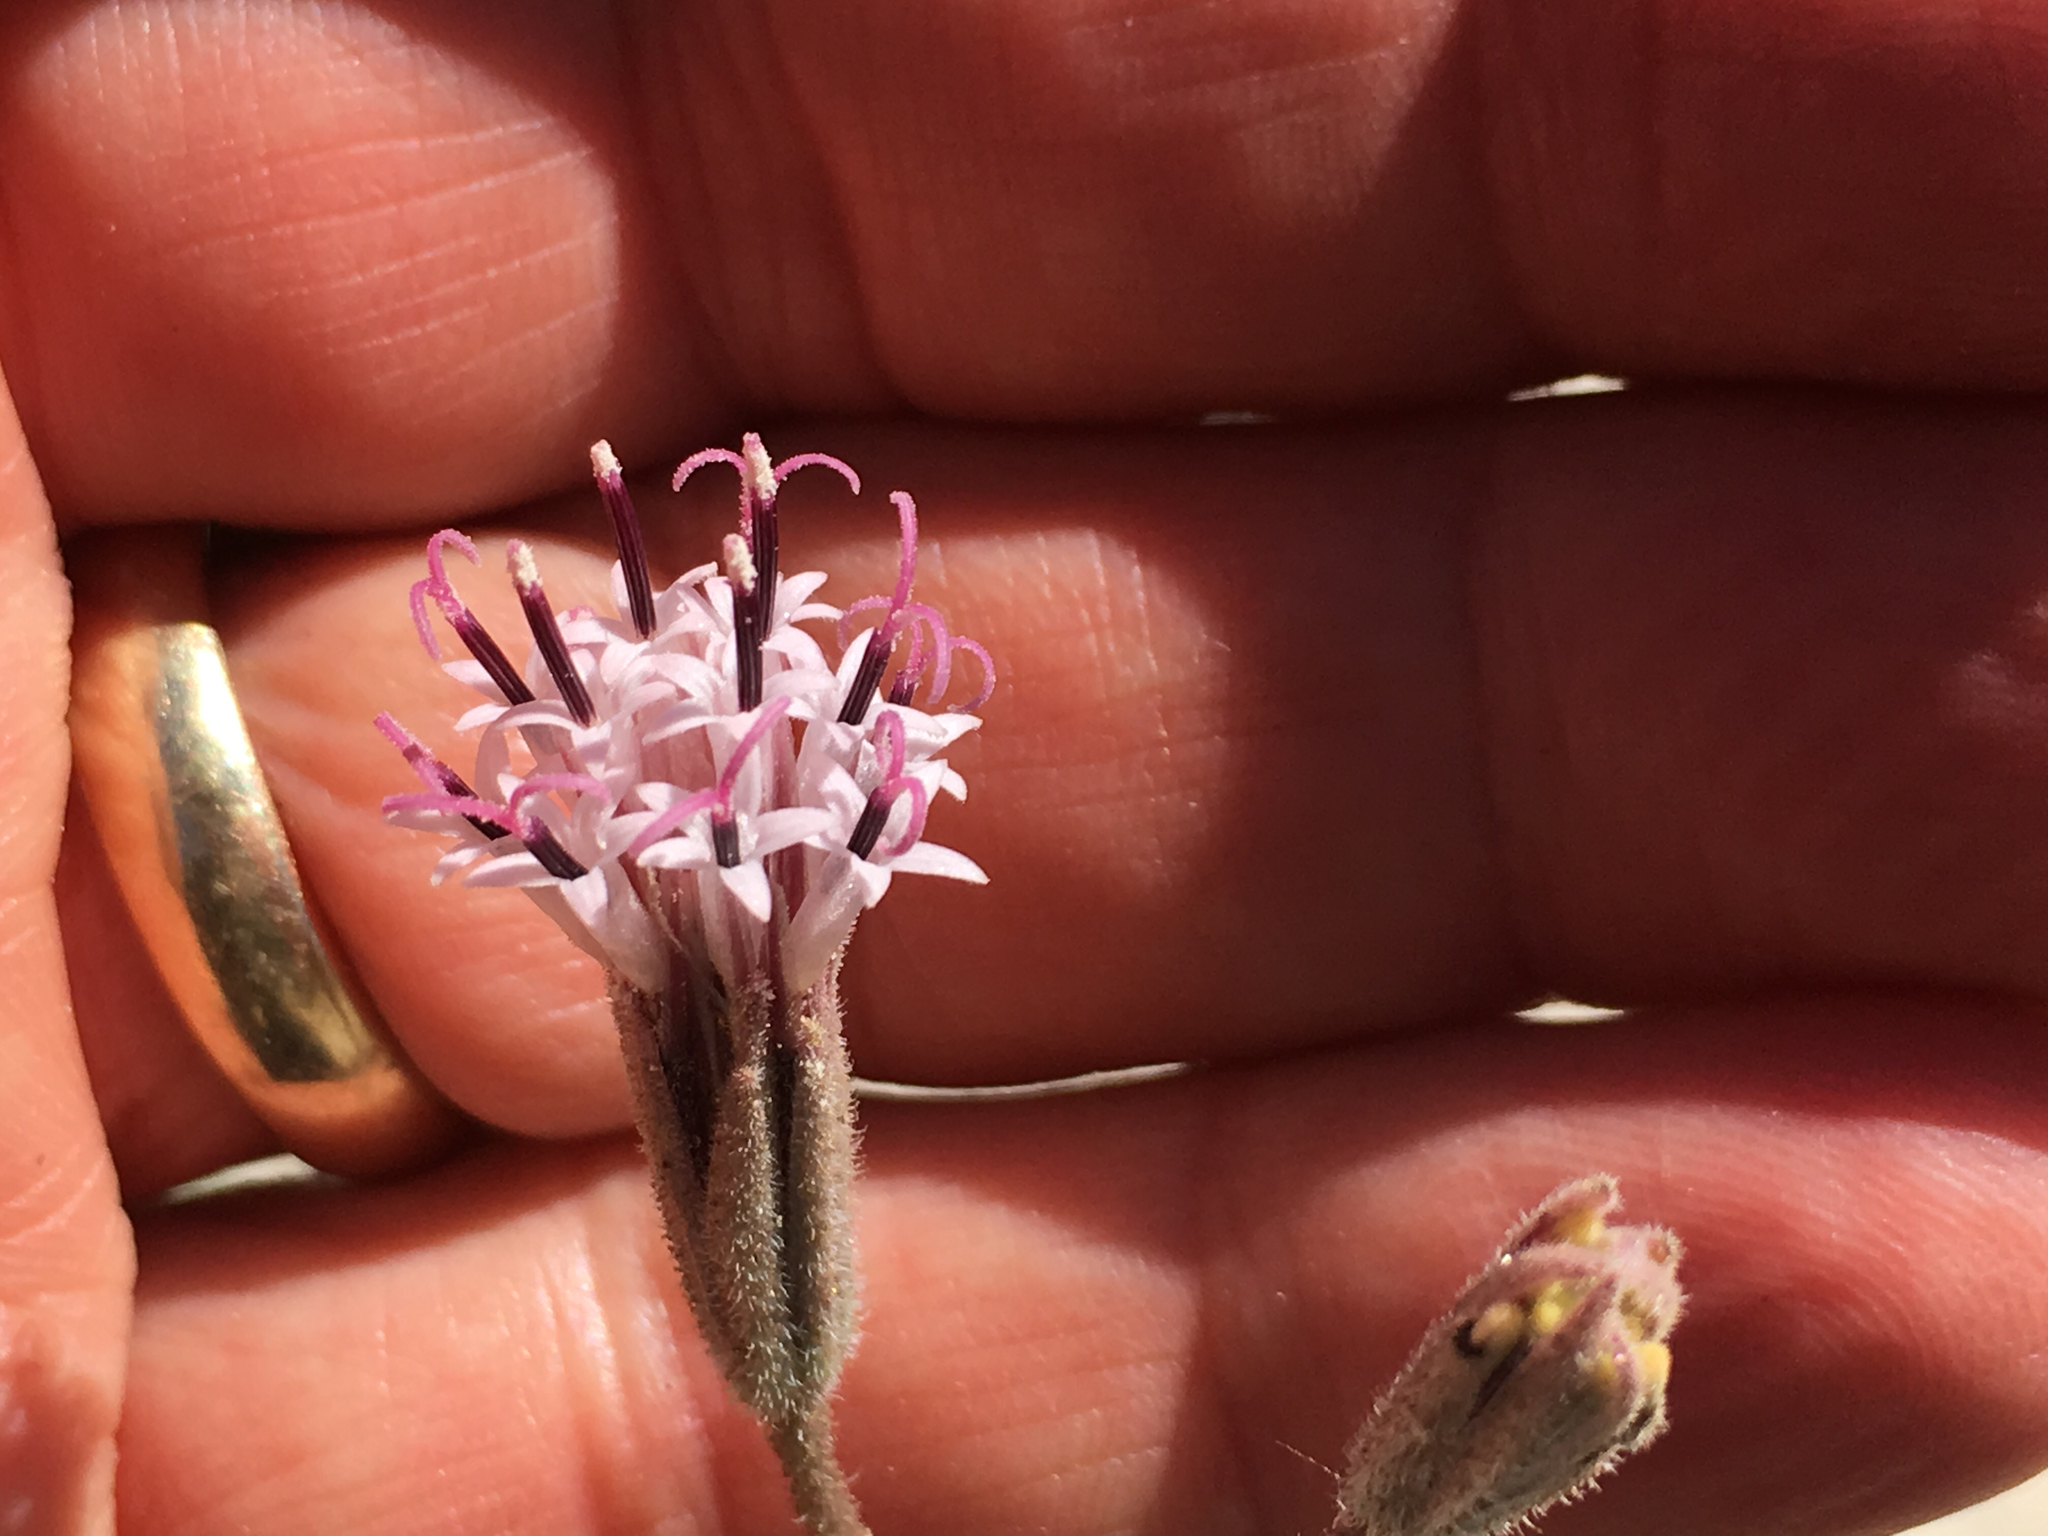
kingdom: Plantae
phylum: Tracheophyta
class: Magnoliopsida
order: Asterales
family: Asteraceae
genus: Palafoxia
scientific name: Palafoxia arida
